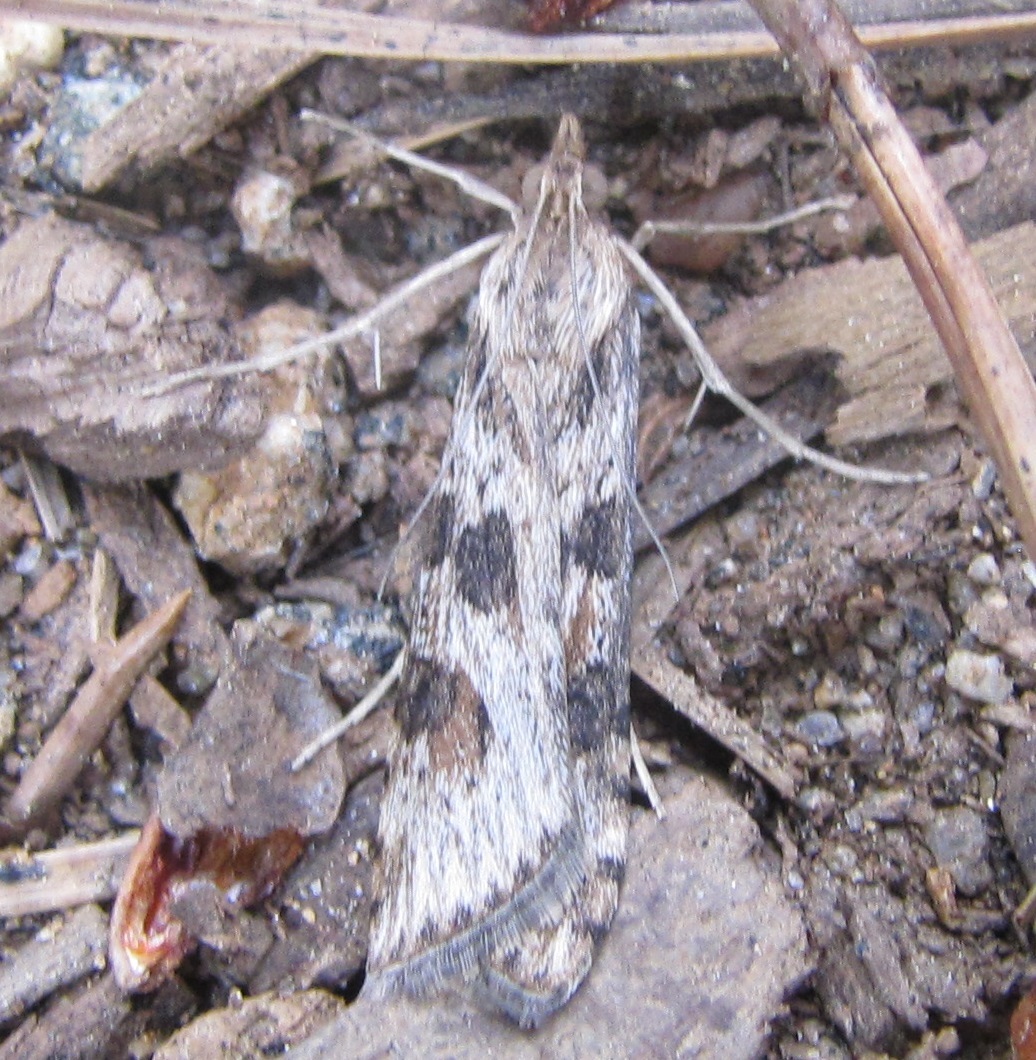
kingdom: Animalia
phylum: Arthropoda
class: Insecta
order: Lepidoptera
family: Crambidae
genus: Nomophila
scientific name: Nomophila nearctica
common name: American rush veneer
